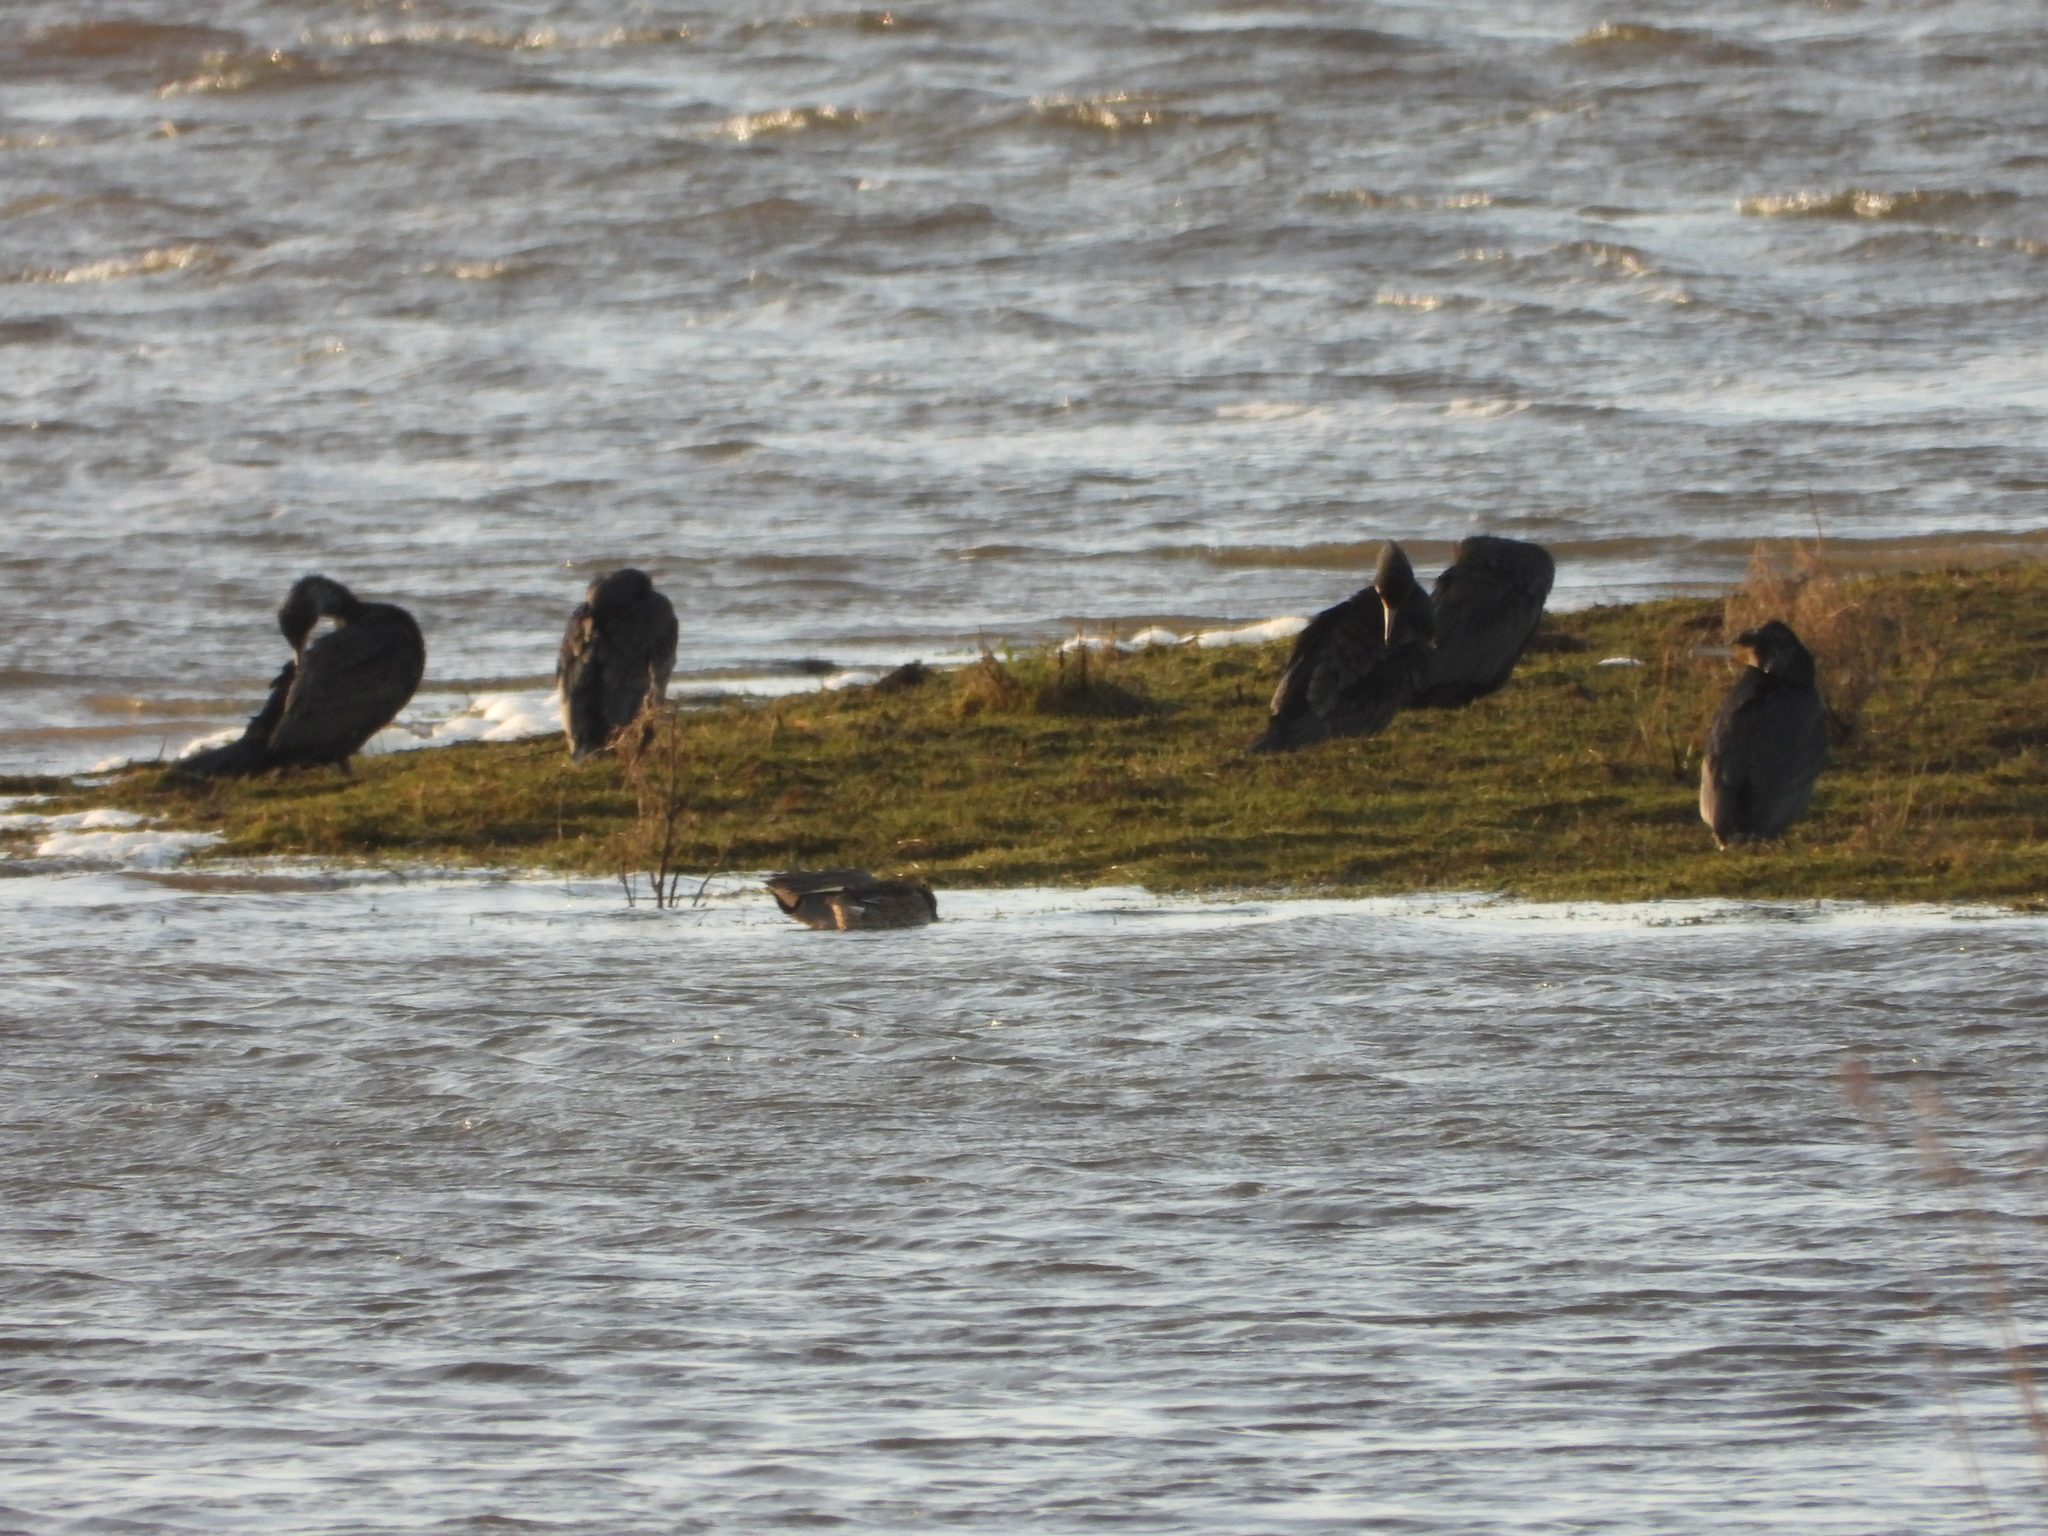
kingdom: Animalia
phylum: Chordata
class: Aves
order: Suliformes
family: Phalacrocoracidae
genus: Phalacrocorax
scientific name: Phalacrocorax carbo
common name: Great cormorant
